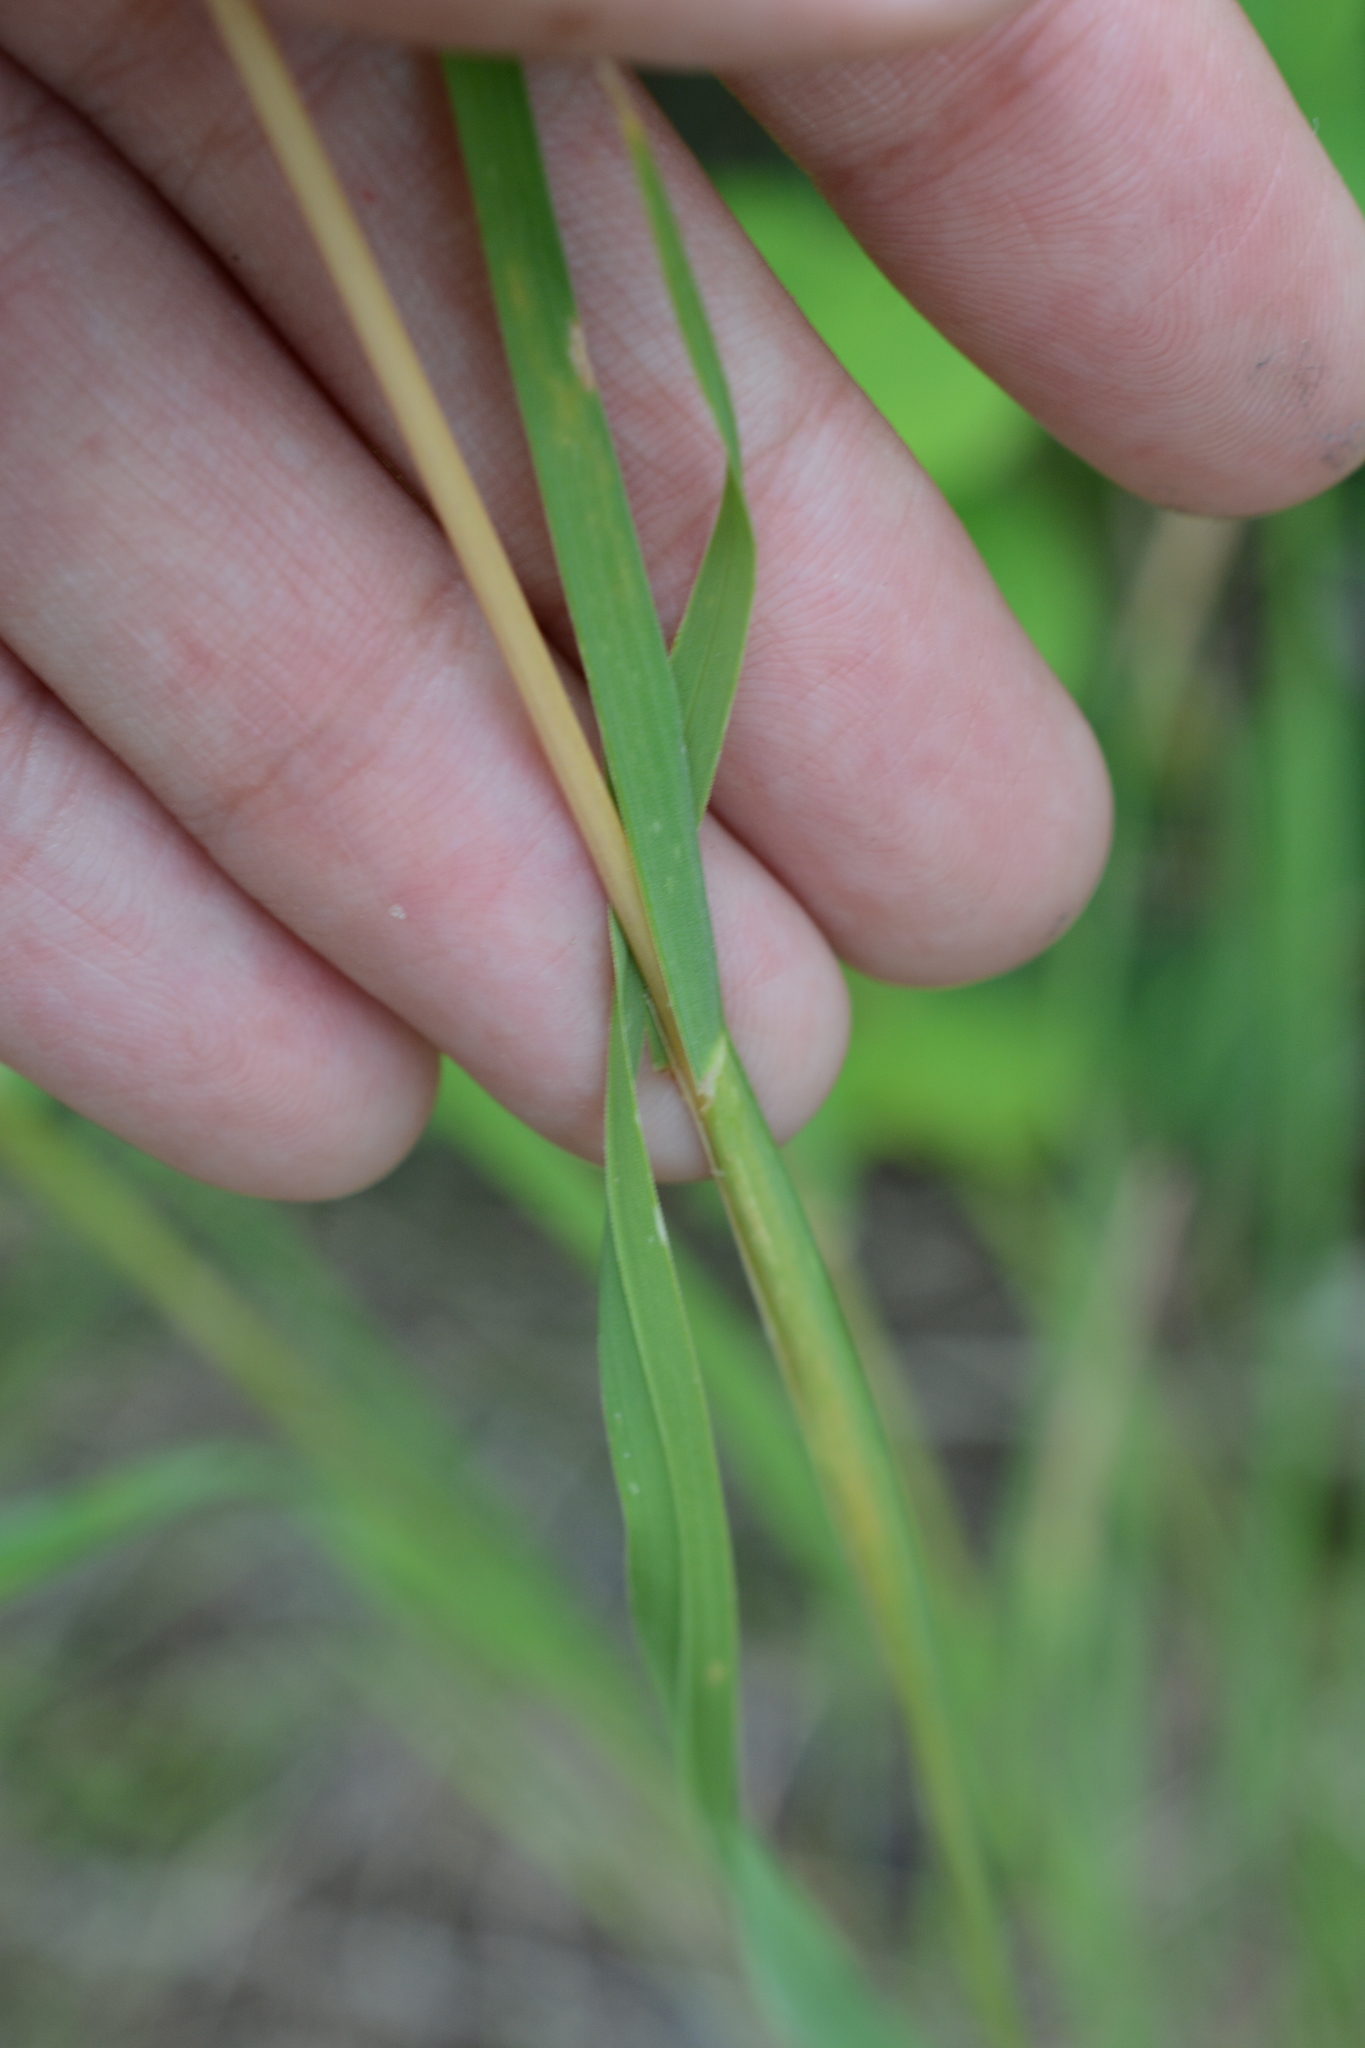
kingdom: Plantae
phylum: Tracheophyta
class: Liliopsida
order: Poales
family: Poaceae
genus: Dactylis
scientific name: Dactylis glomerata
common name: Orchardgrass
